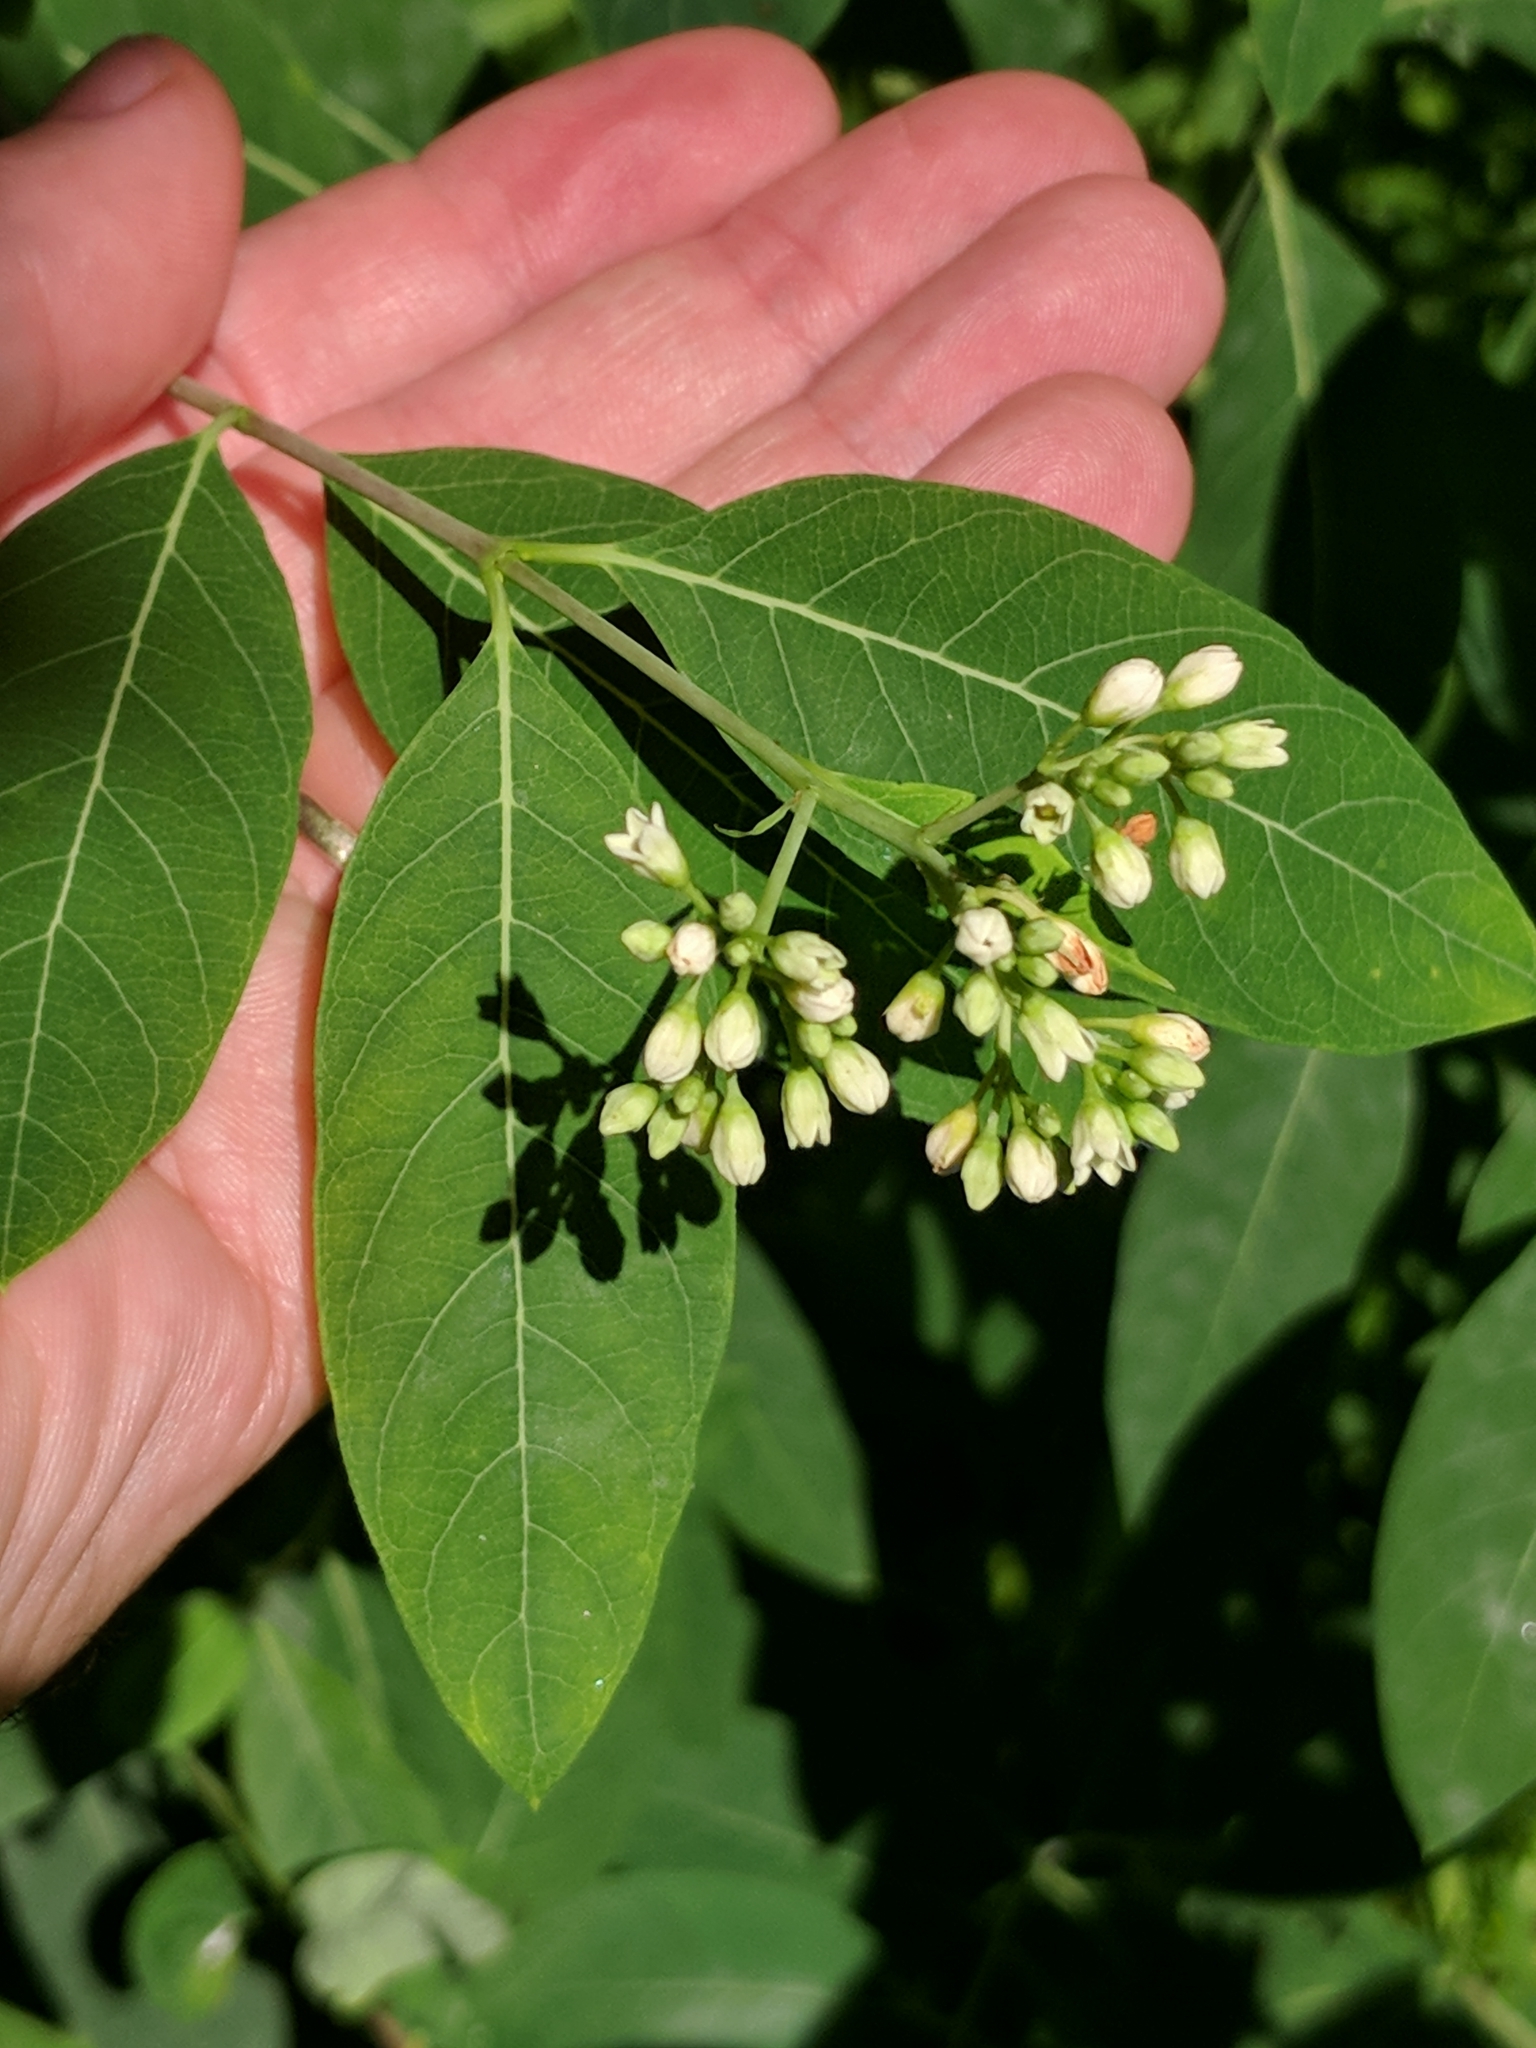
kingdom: Plantae
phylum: Tracheophyta
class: Magnoliopsida
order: Gentianales
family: Apocynaceae
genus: Apocynum
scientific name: Apocynum cannabinum
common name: Hemp dogbane
